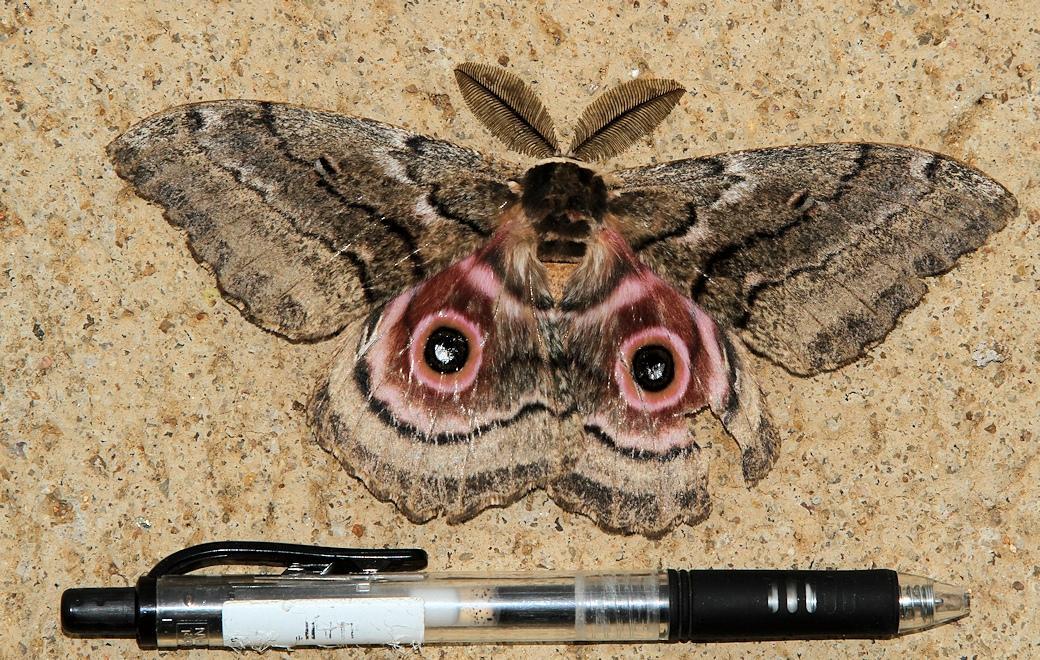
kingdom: Animalia
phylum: Arthropoda
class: Insecta
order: Lepidoptera
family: Saturniidae
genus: Gynanisa
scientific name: Gynanisa maja
